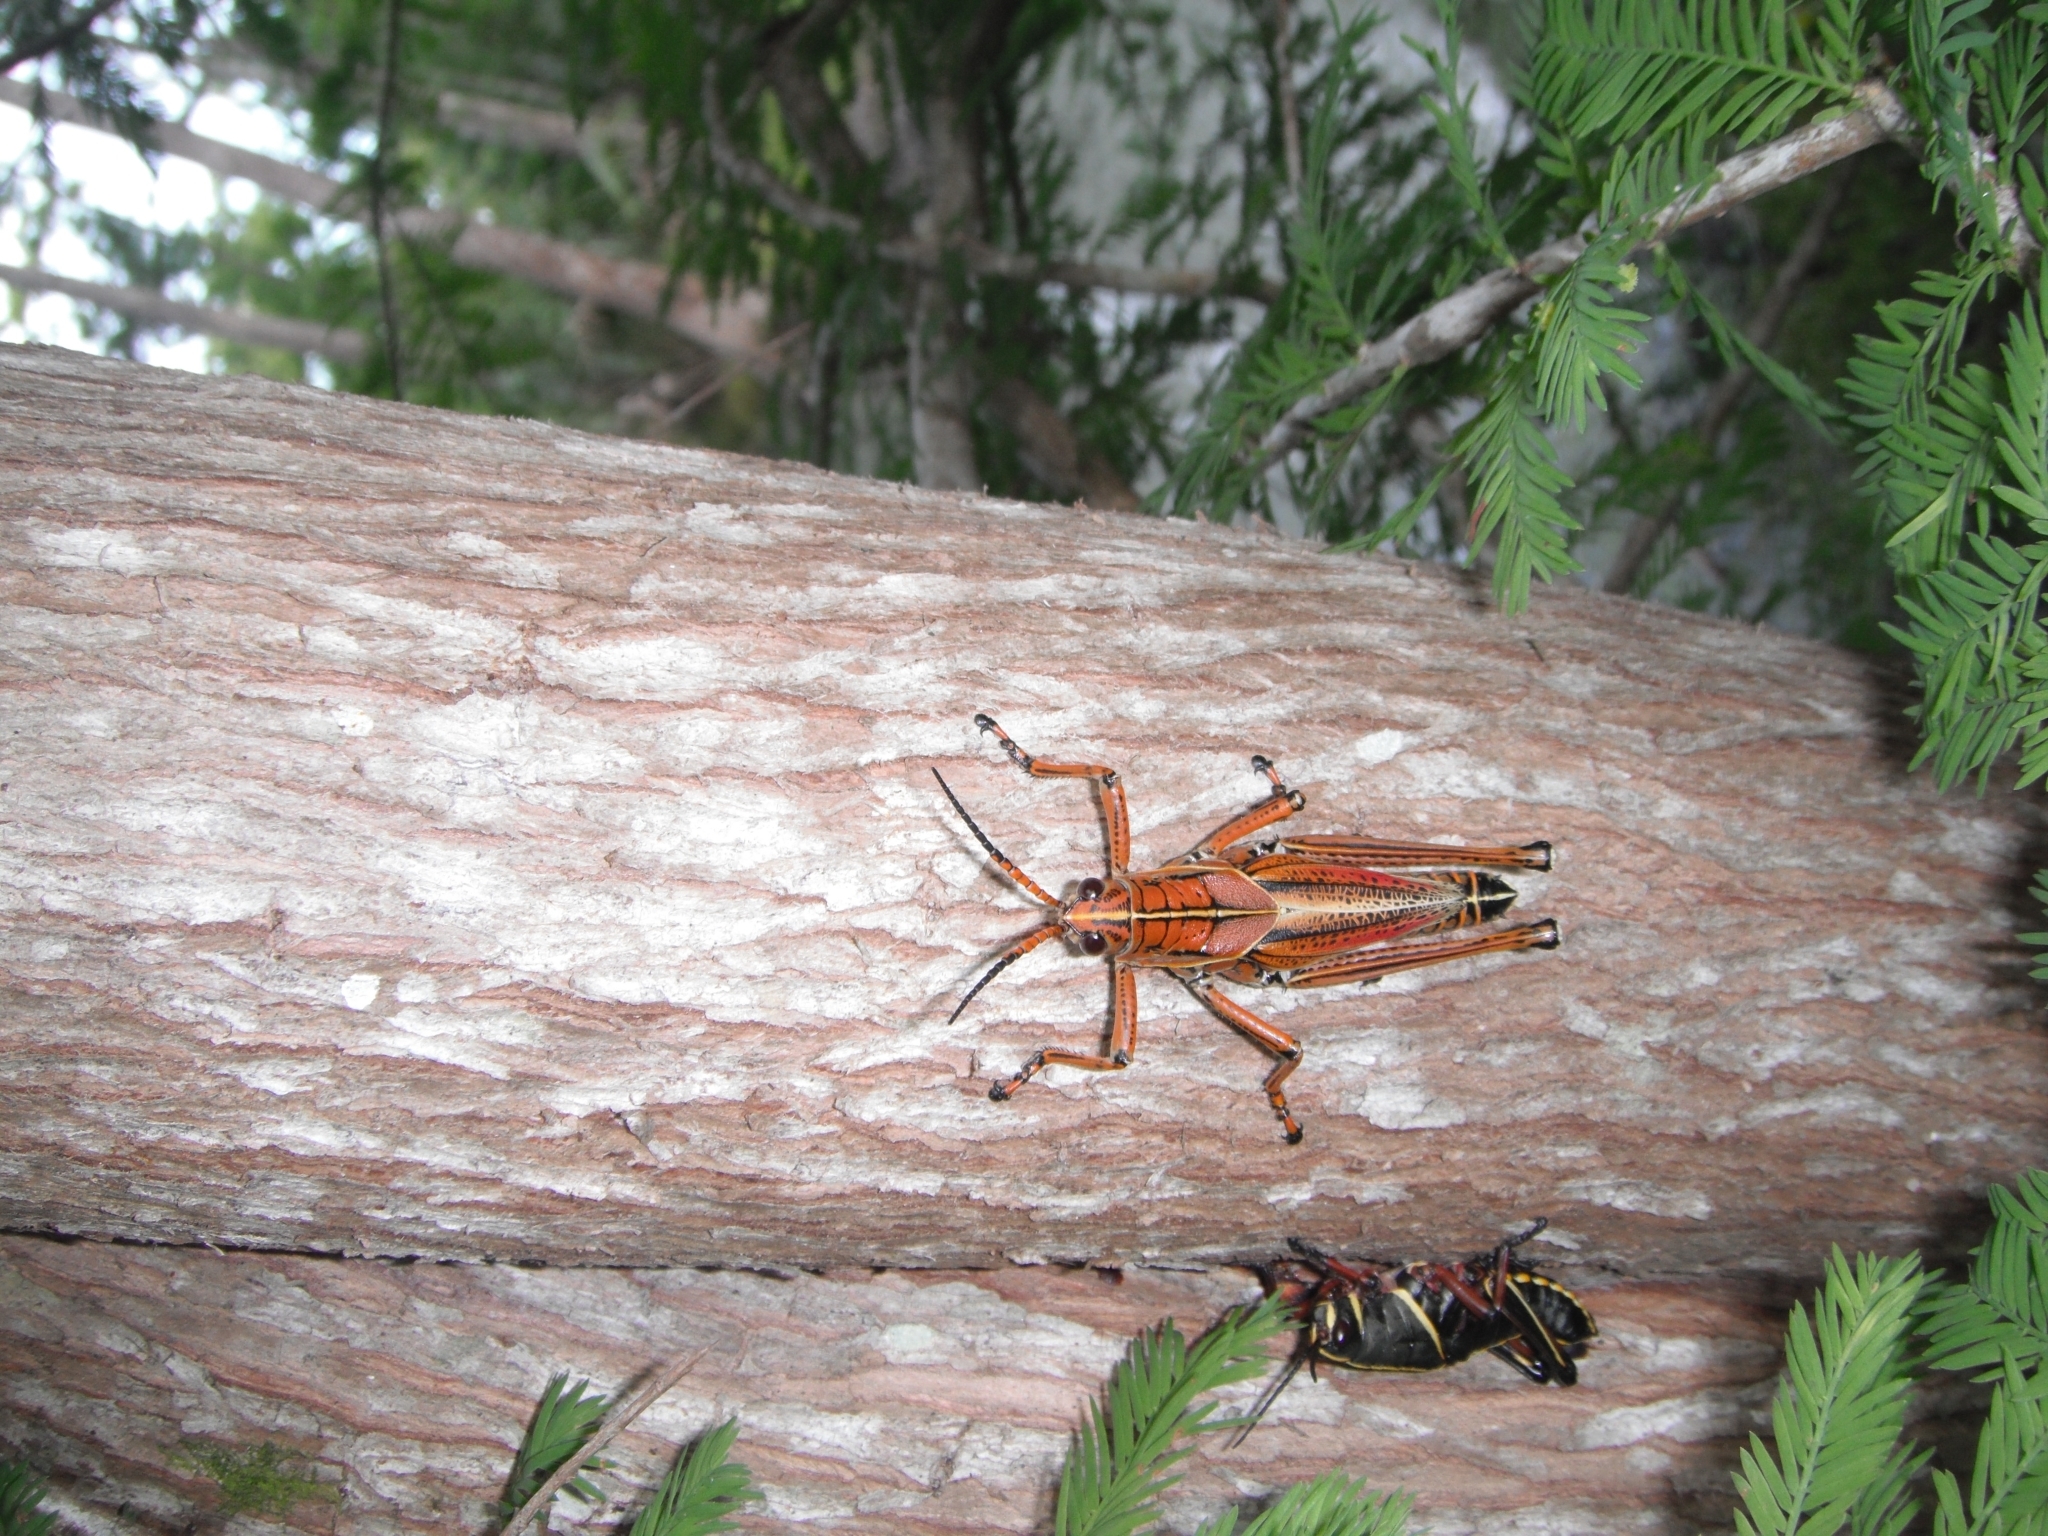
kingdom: Animalia
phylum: Arthropoda
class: Insecta
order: Orthoptera
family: Romaleidae
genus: Romalea
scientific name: Romalea microptera
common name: Eastern lubber grasshopper
